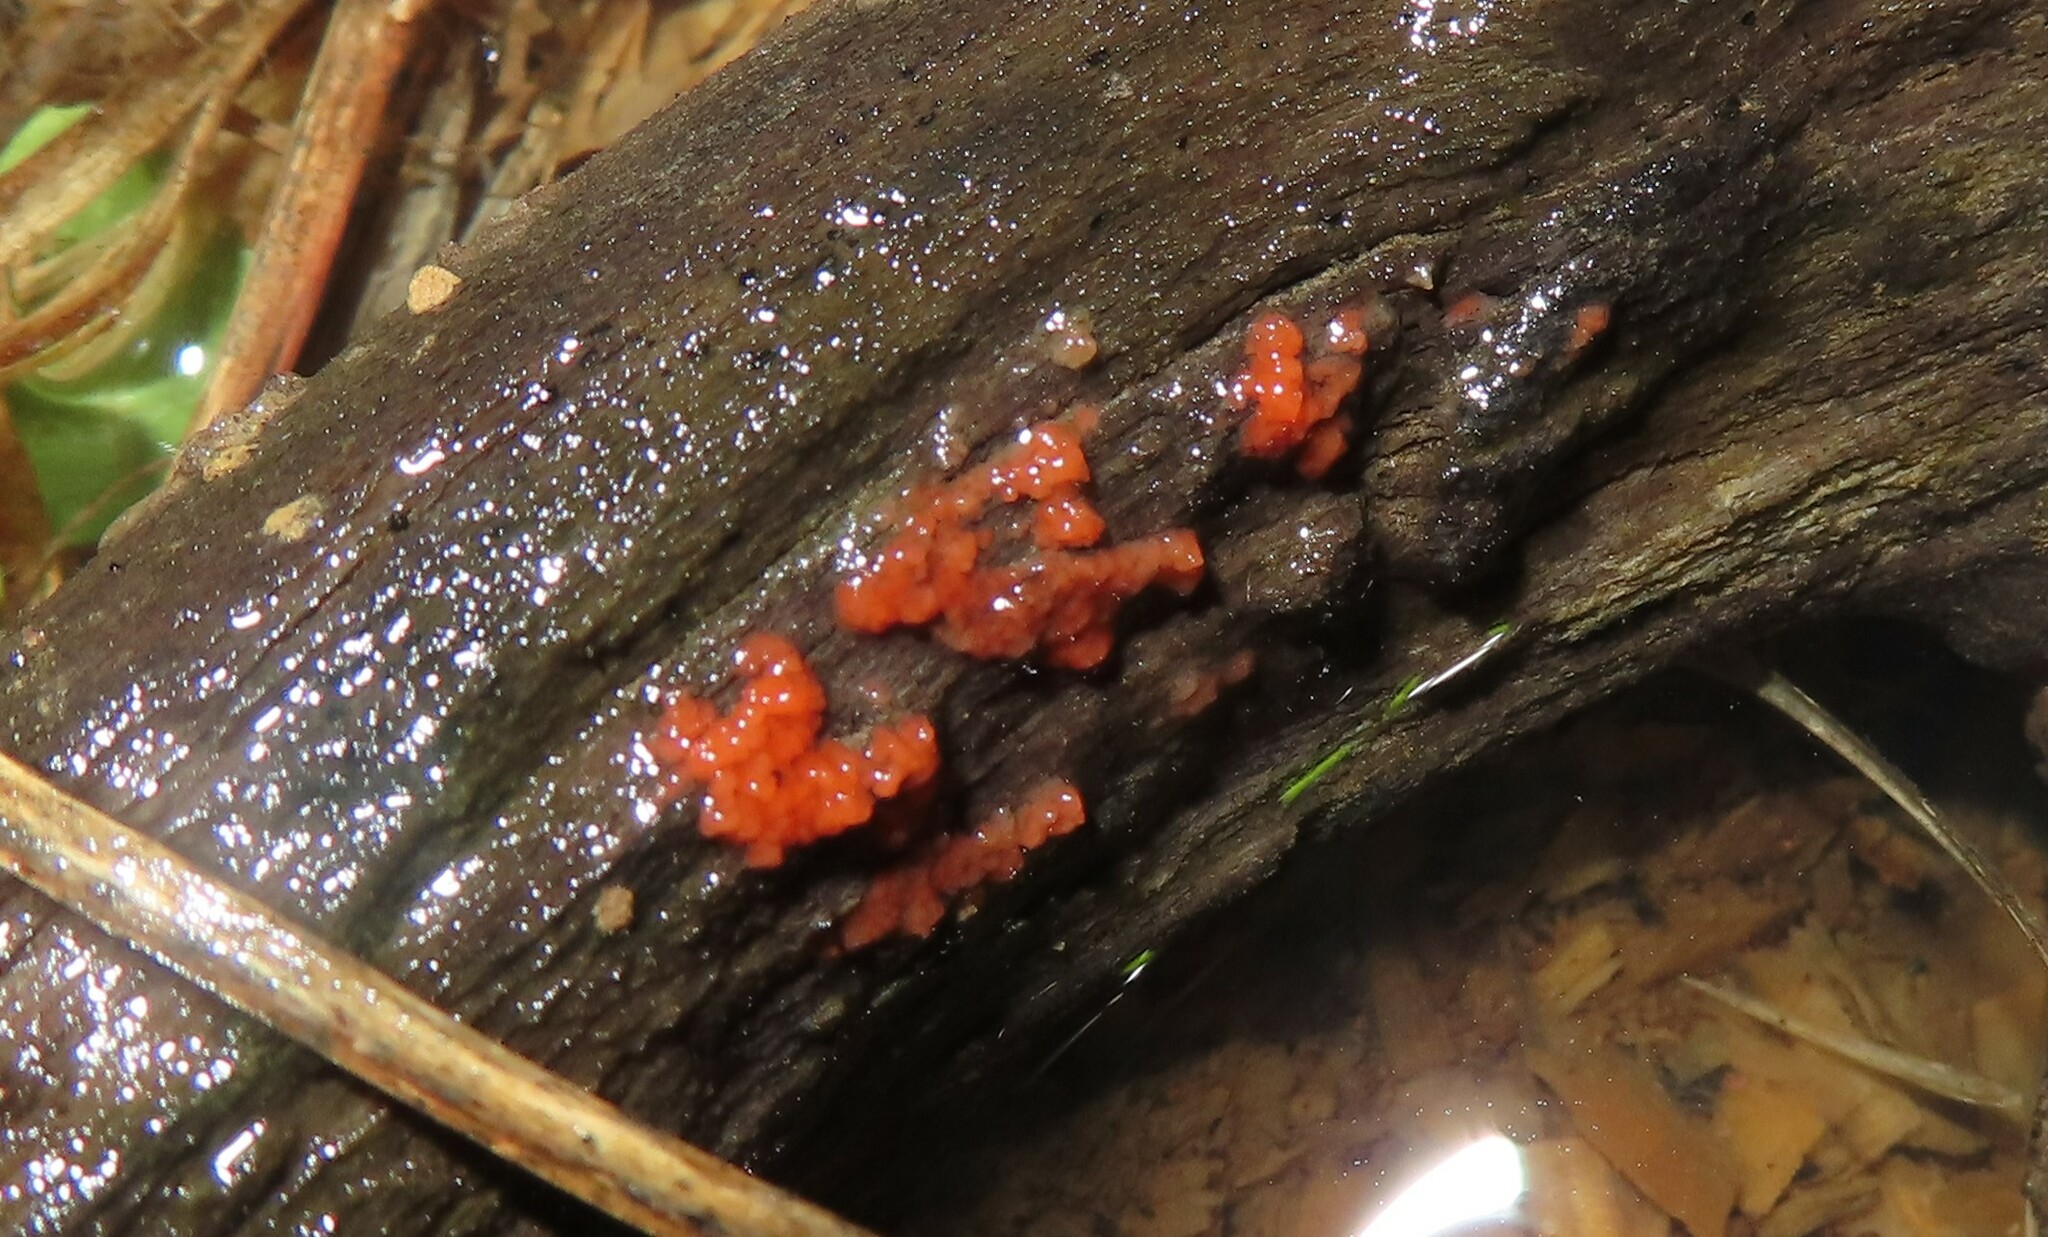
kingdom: Fungi
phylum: Basidiomycota
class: Agaricomycetes
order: Cantharellales
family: Tulasnellaceae
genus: Tulasnella
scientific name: Tulasnella aurantiaca
